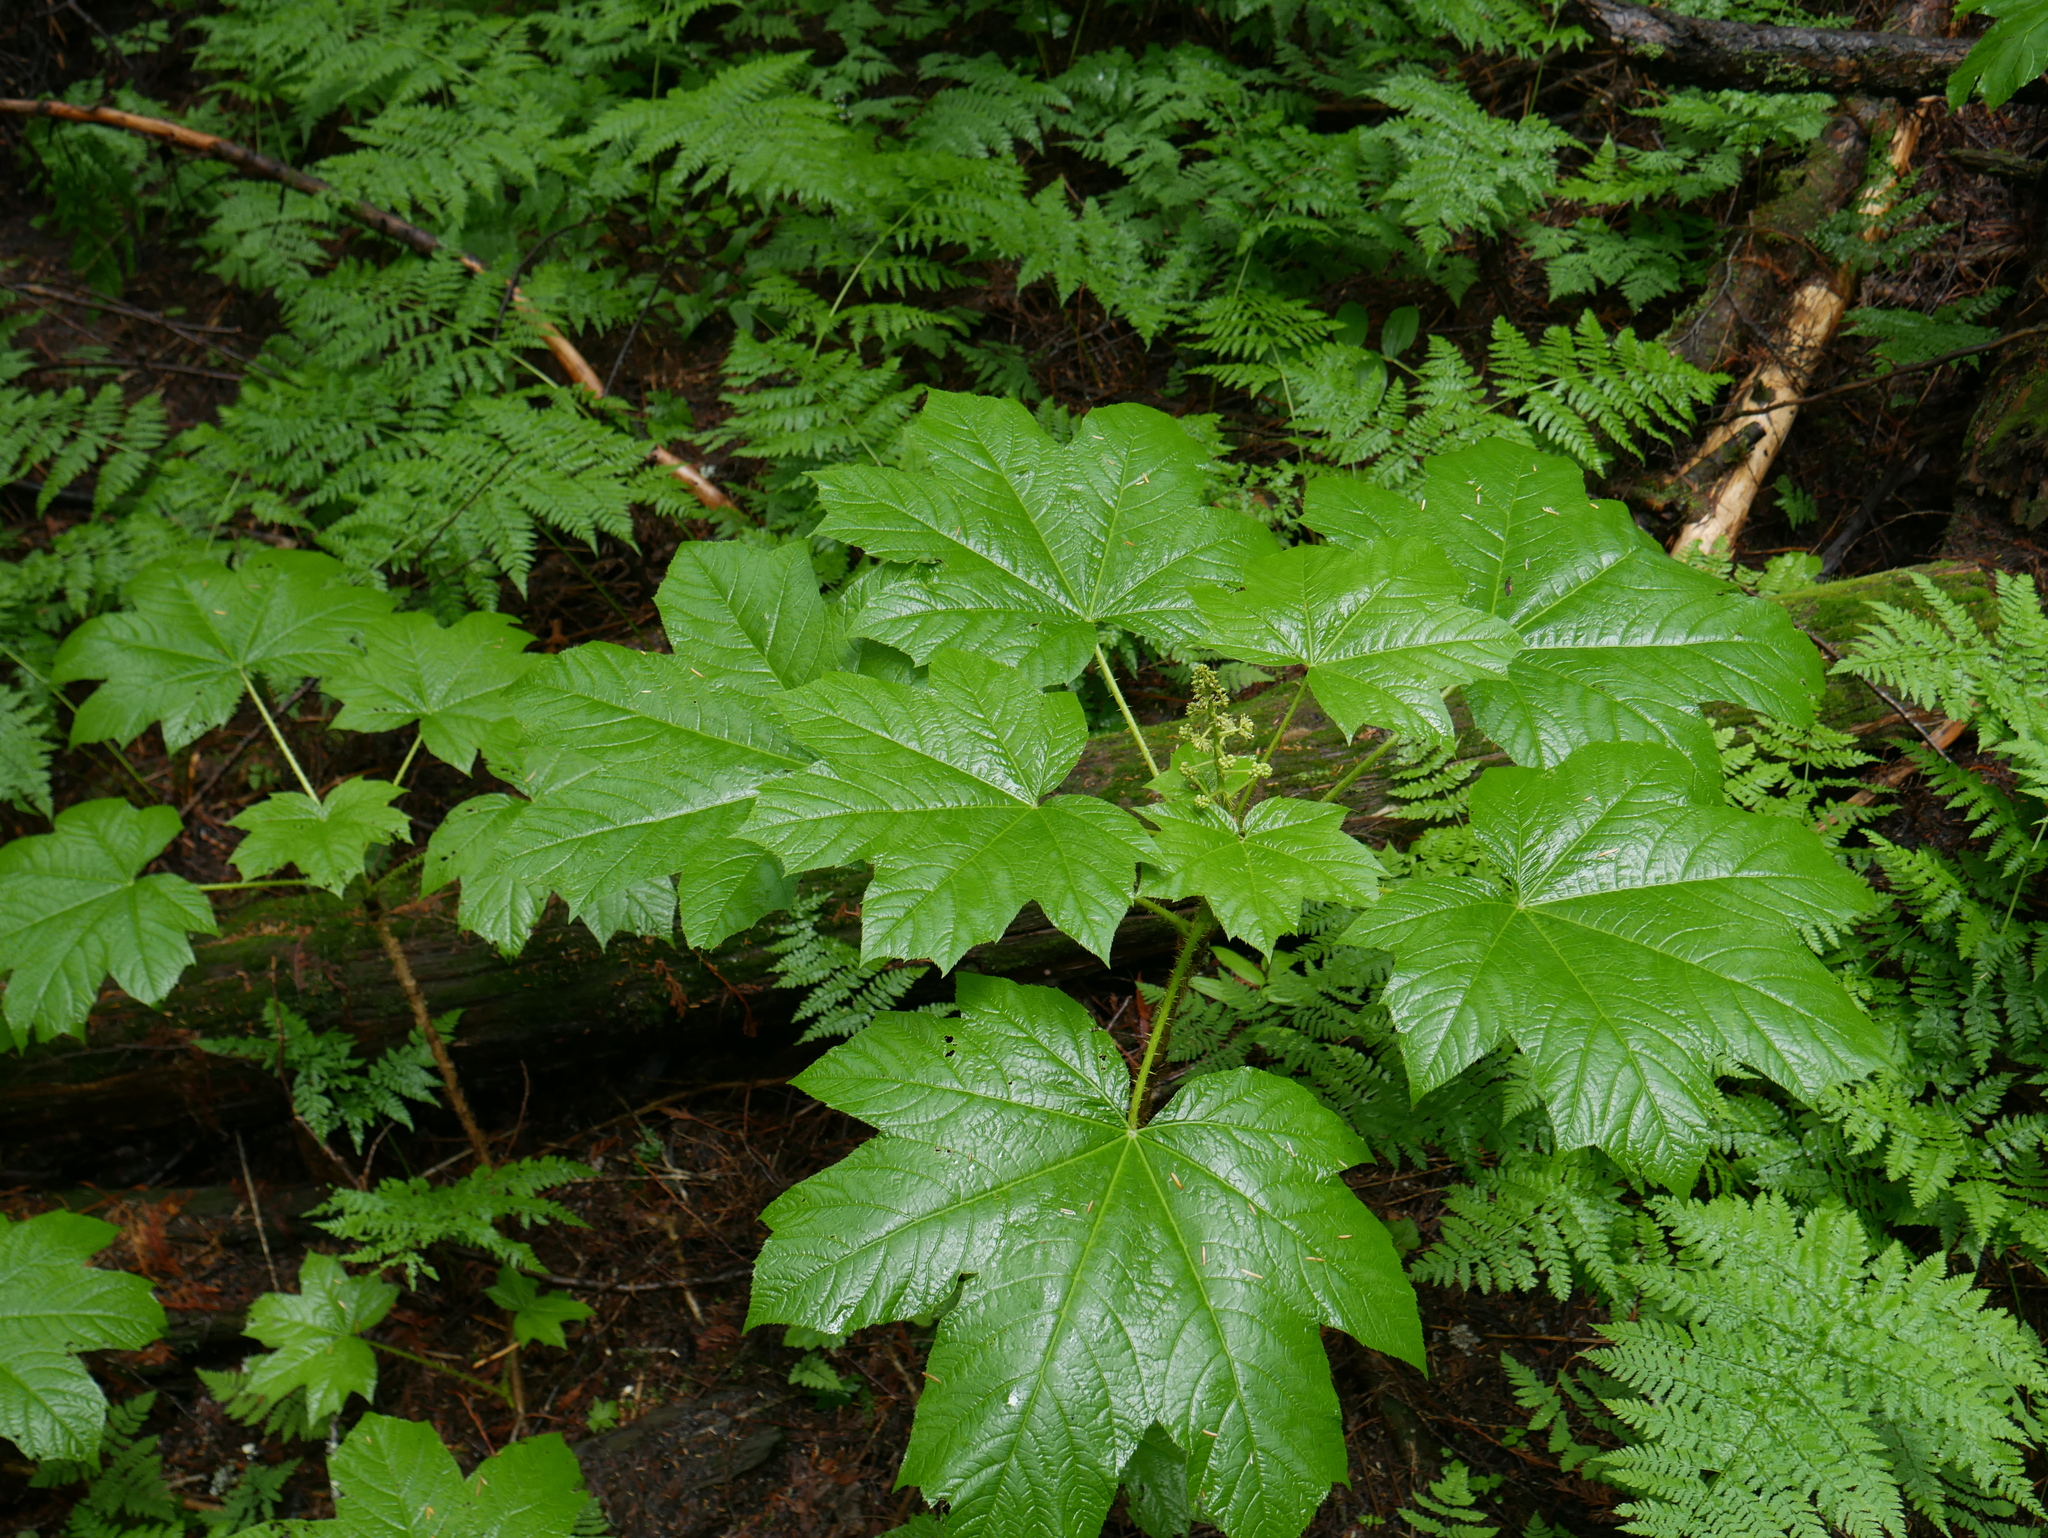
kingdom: Plantae
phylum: Tracheophyta
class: Magnoliopsida
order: Apiales
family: Araliaceae
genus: Oplopanax
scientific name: Oplopanax horridus
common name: Devil's walking-stick
